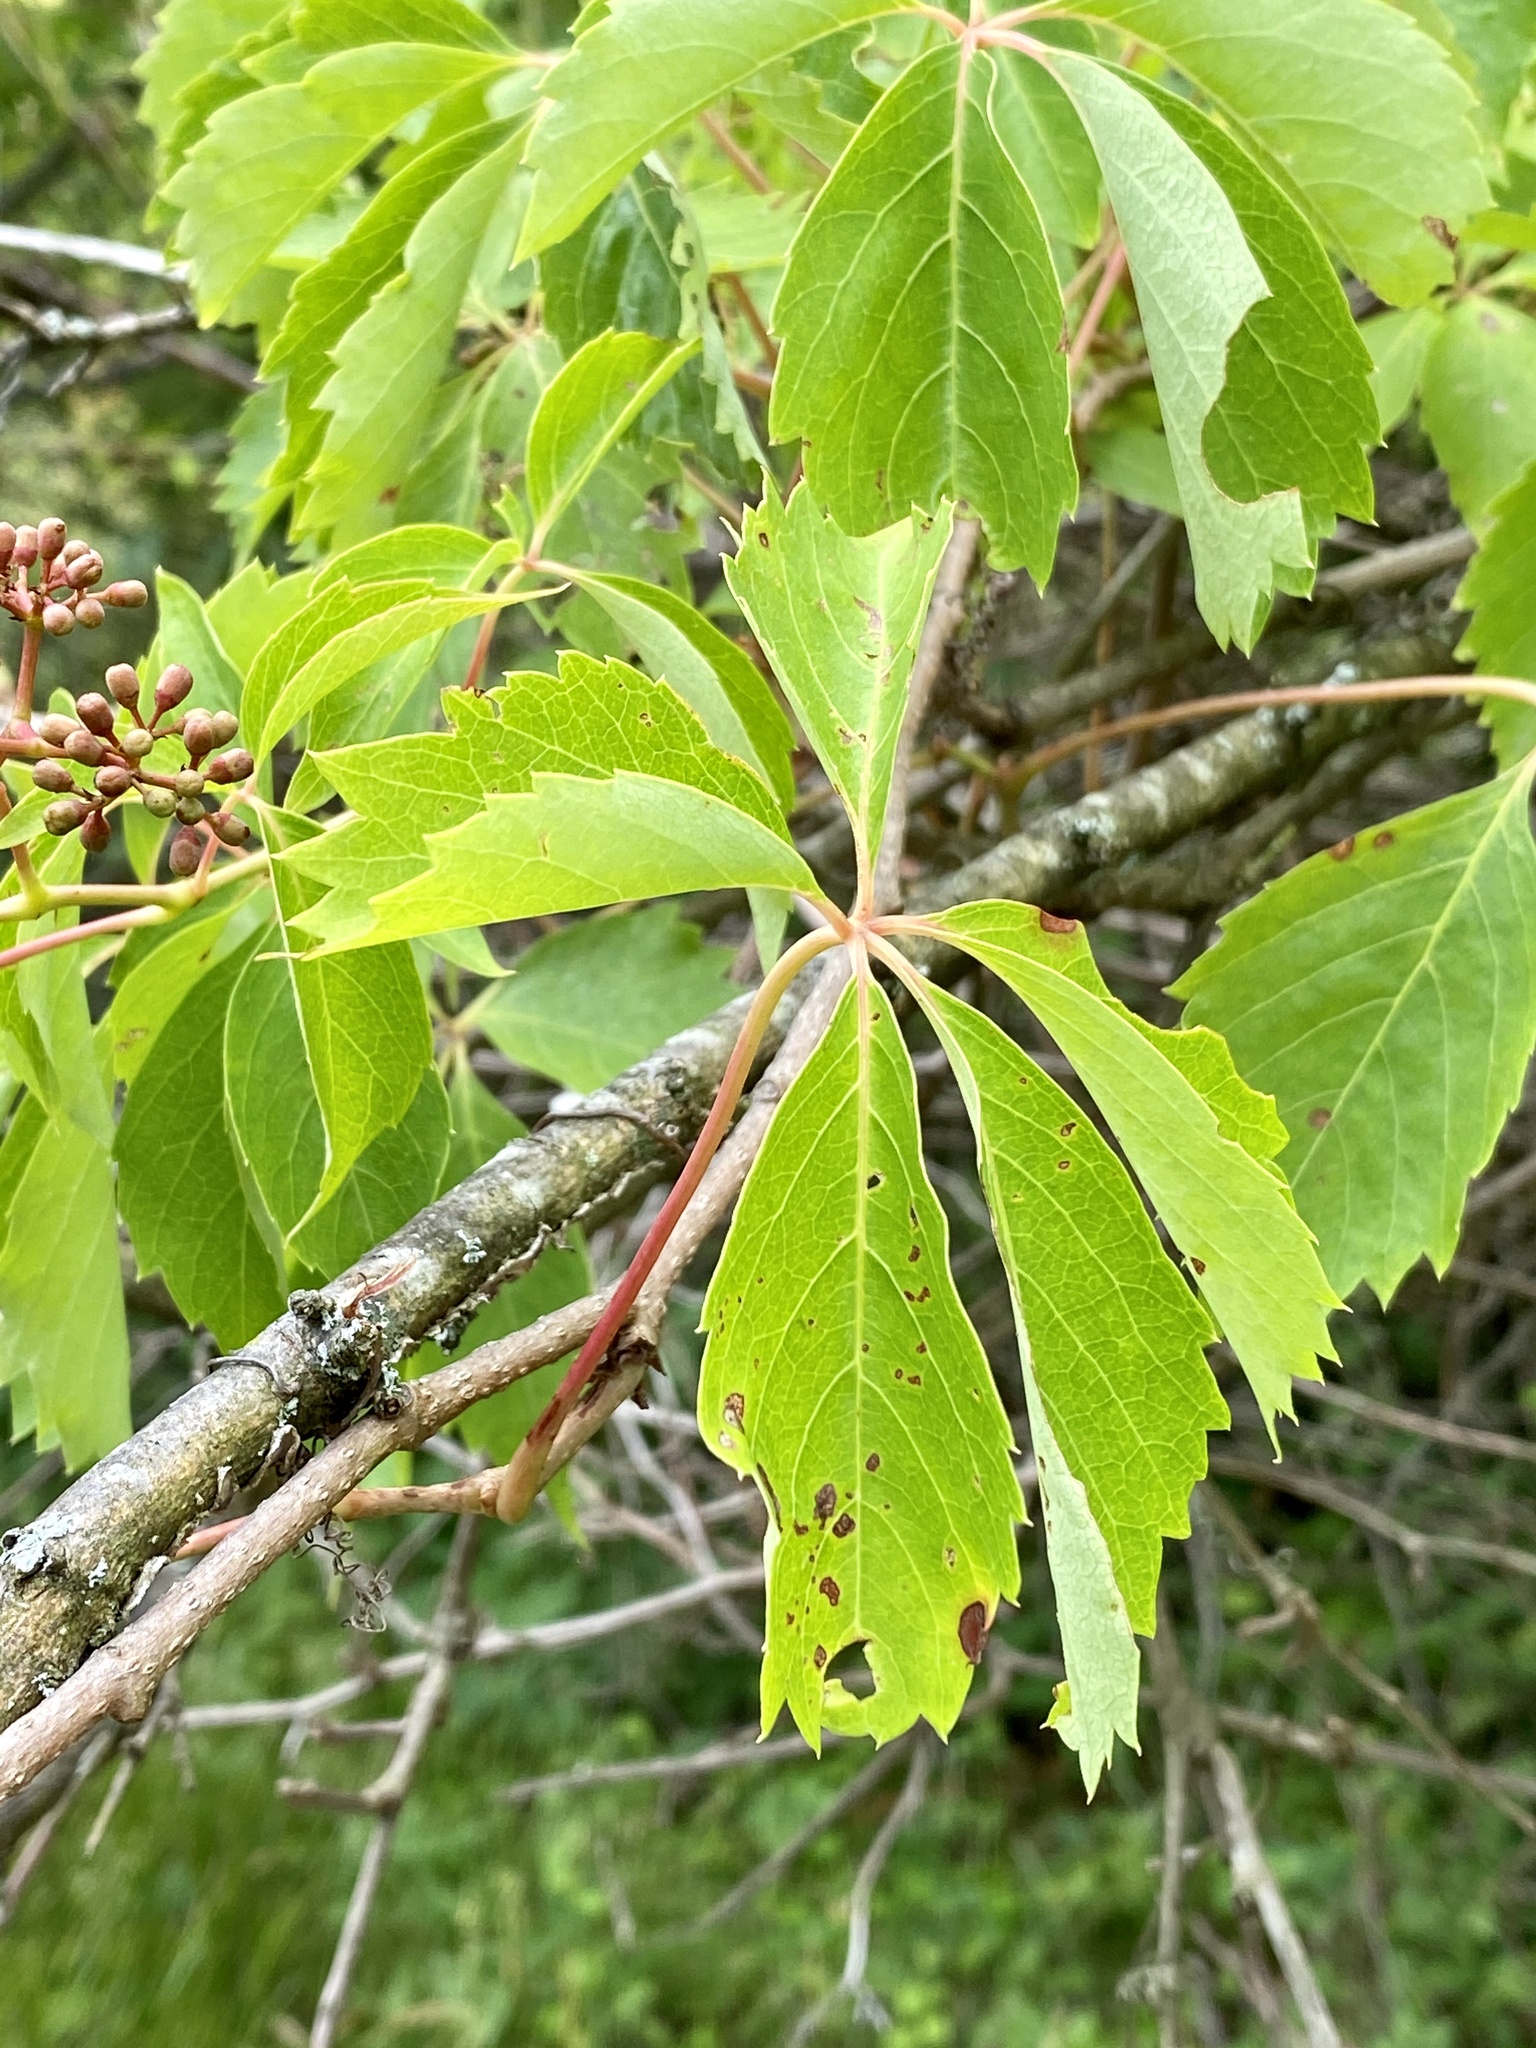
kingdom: Plantae
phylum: Tracheophyta
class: Magnoliopsida
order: Vitales
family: Vitaceae
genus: Parthenocissus
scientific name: Parthenocissus quinquefolia
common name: Virginia-creeper
